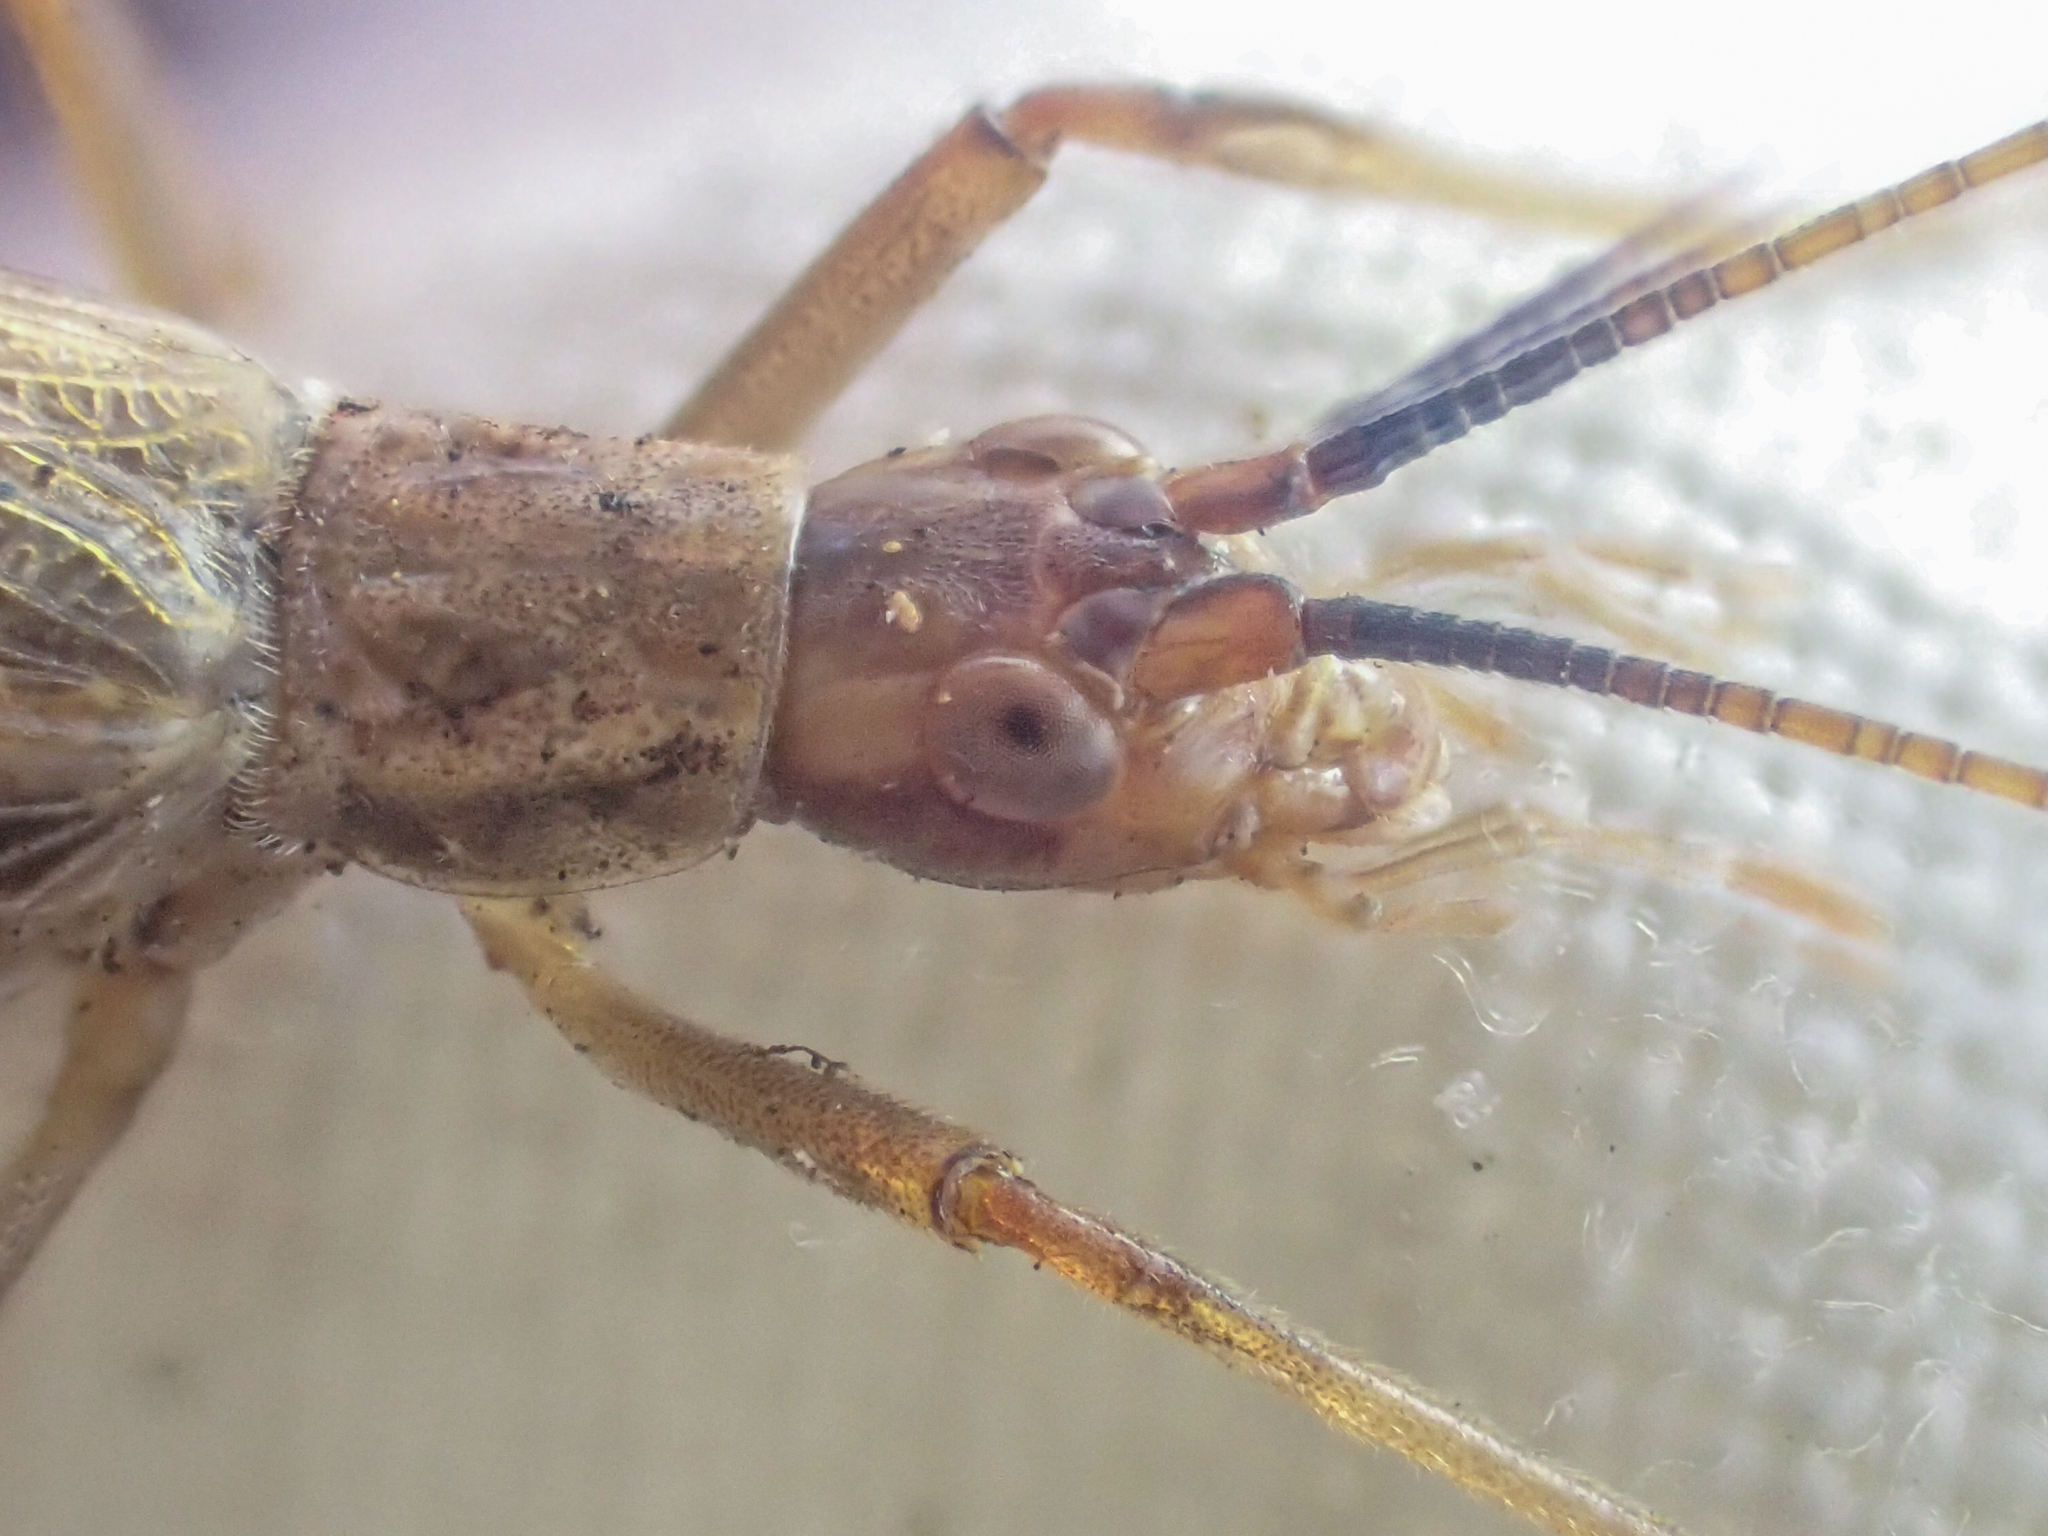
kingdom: Animalia
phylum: Arthropoda
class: Insecta
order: Orthoptera
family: Gryllidae
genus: Oecanthus
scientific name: Oecanthus californicus
